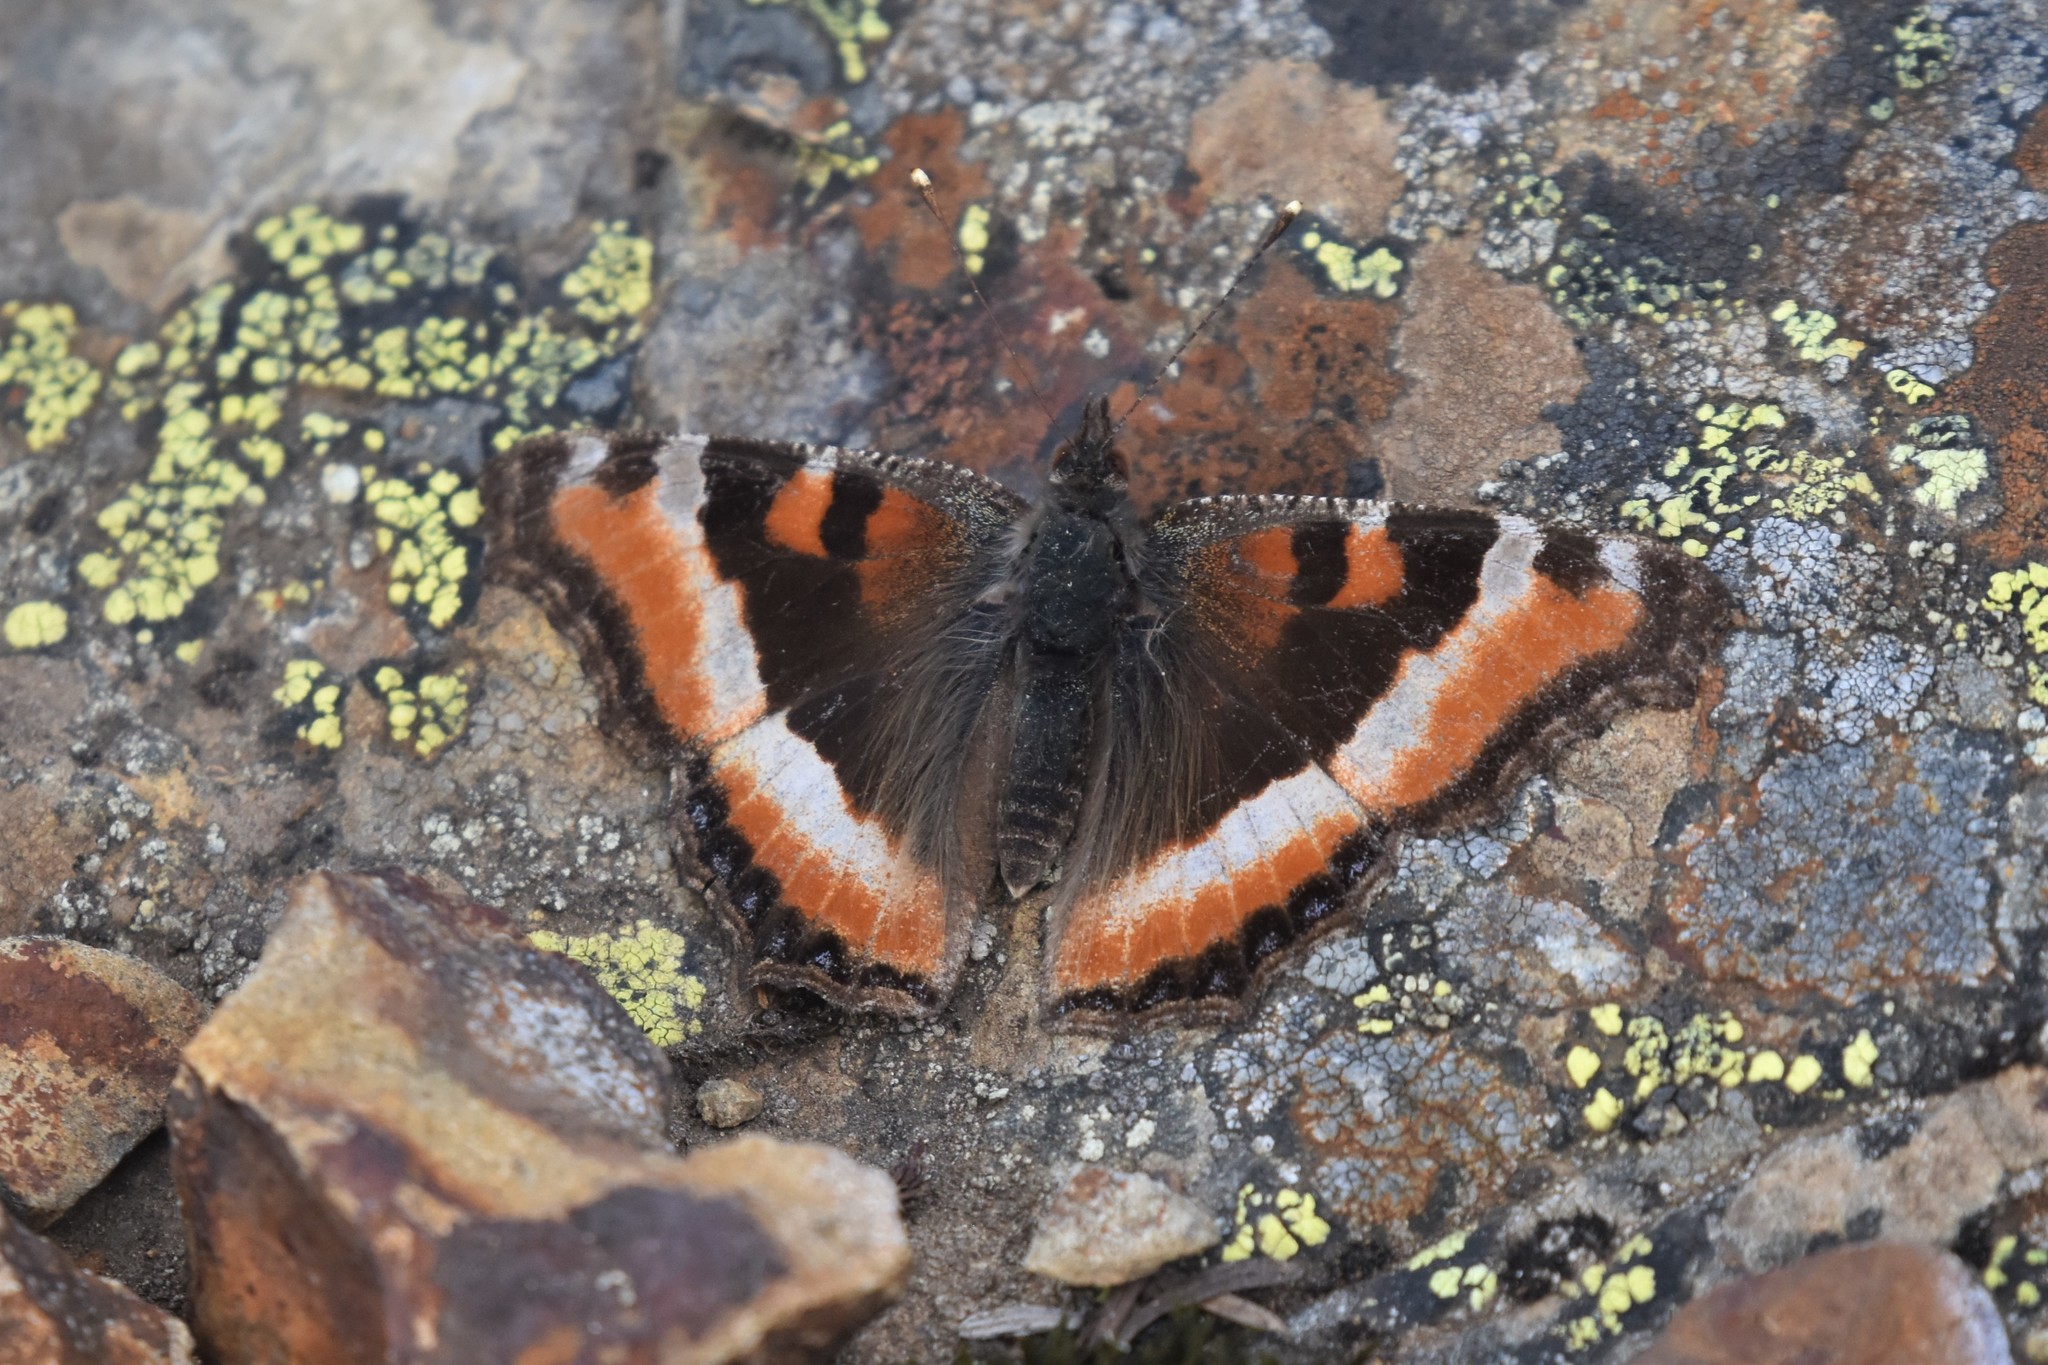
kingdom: Animalia
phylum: Arthropoda
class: Insecta
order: Lepidoptera
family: Nymphalidae
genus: Aglais
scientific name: Aglais milberti
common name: Milbert's tortoiseshell
